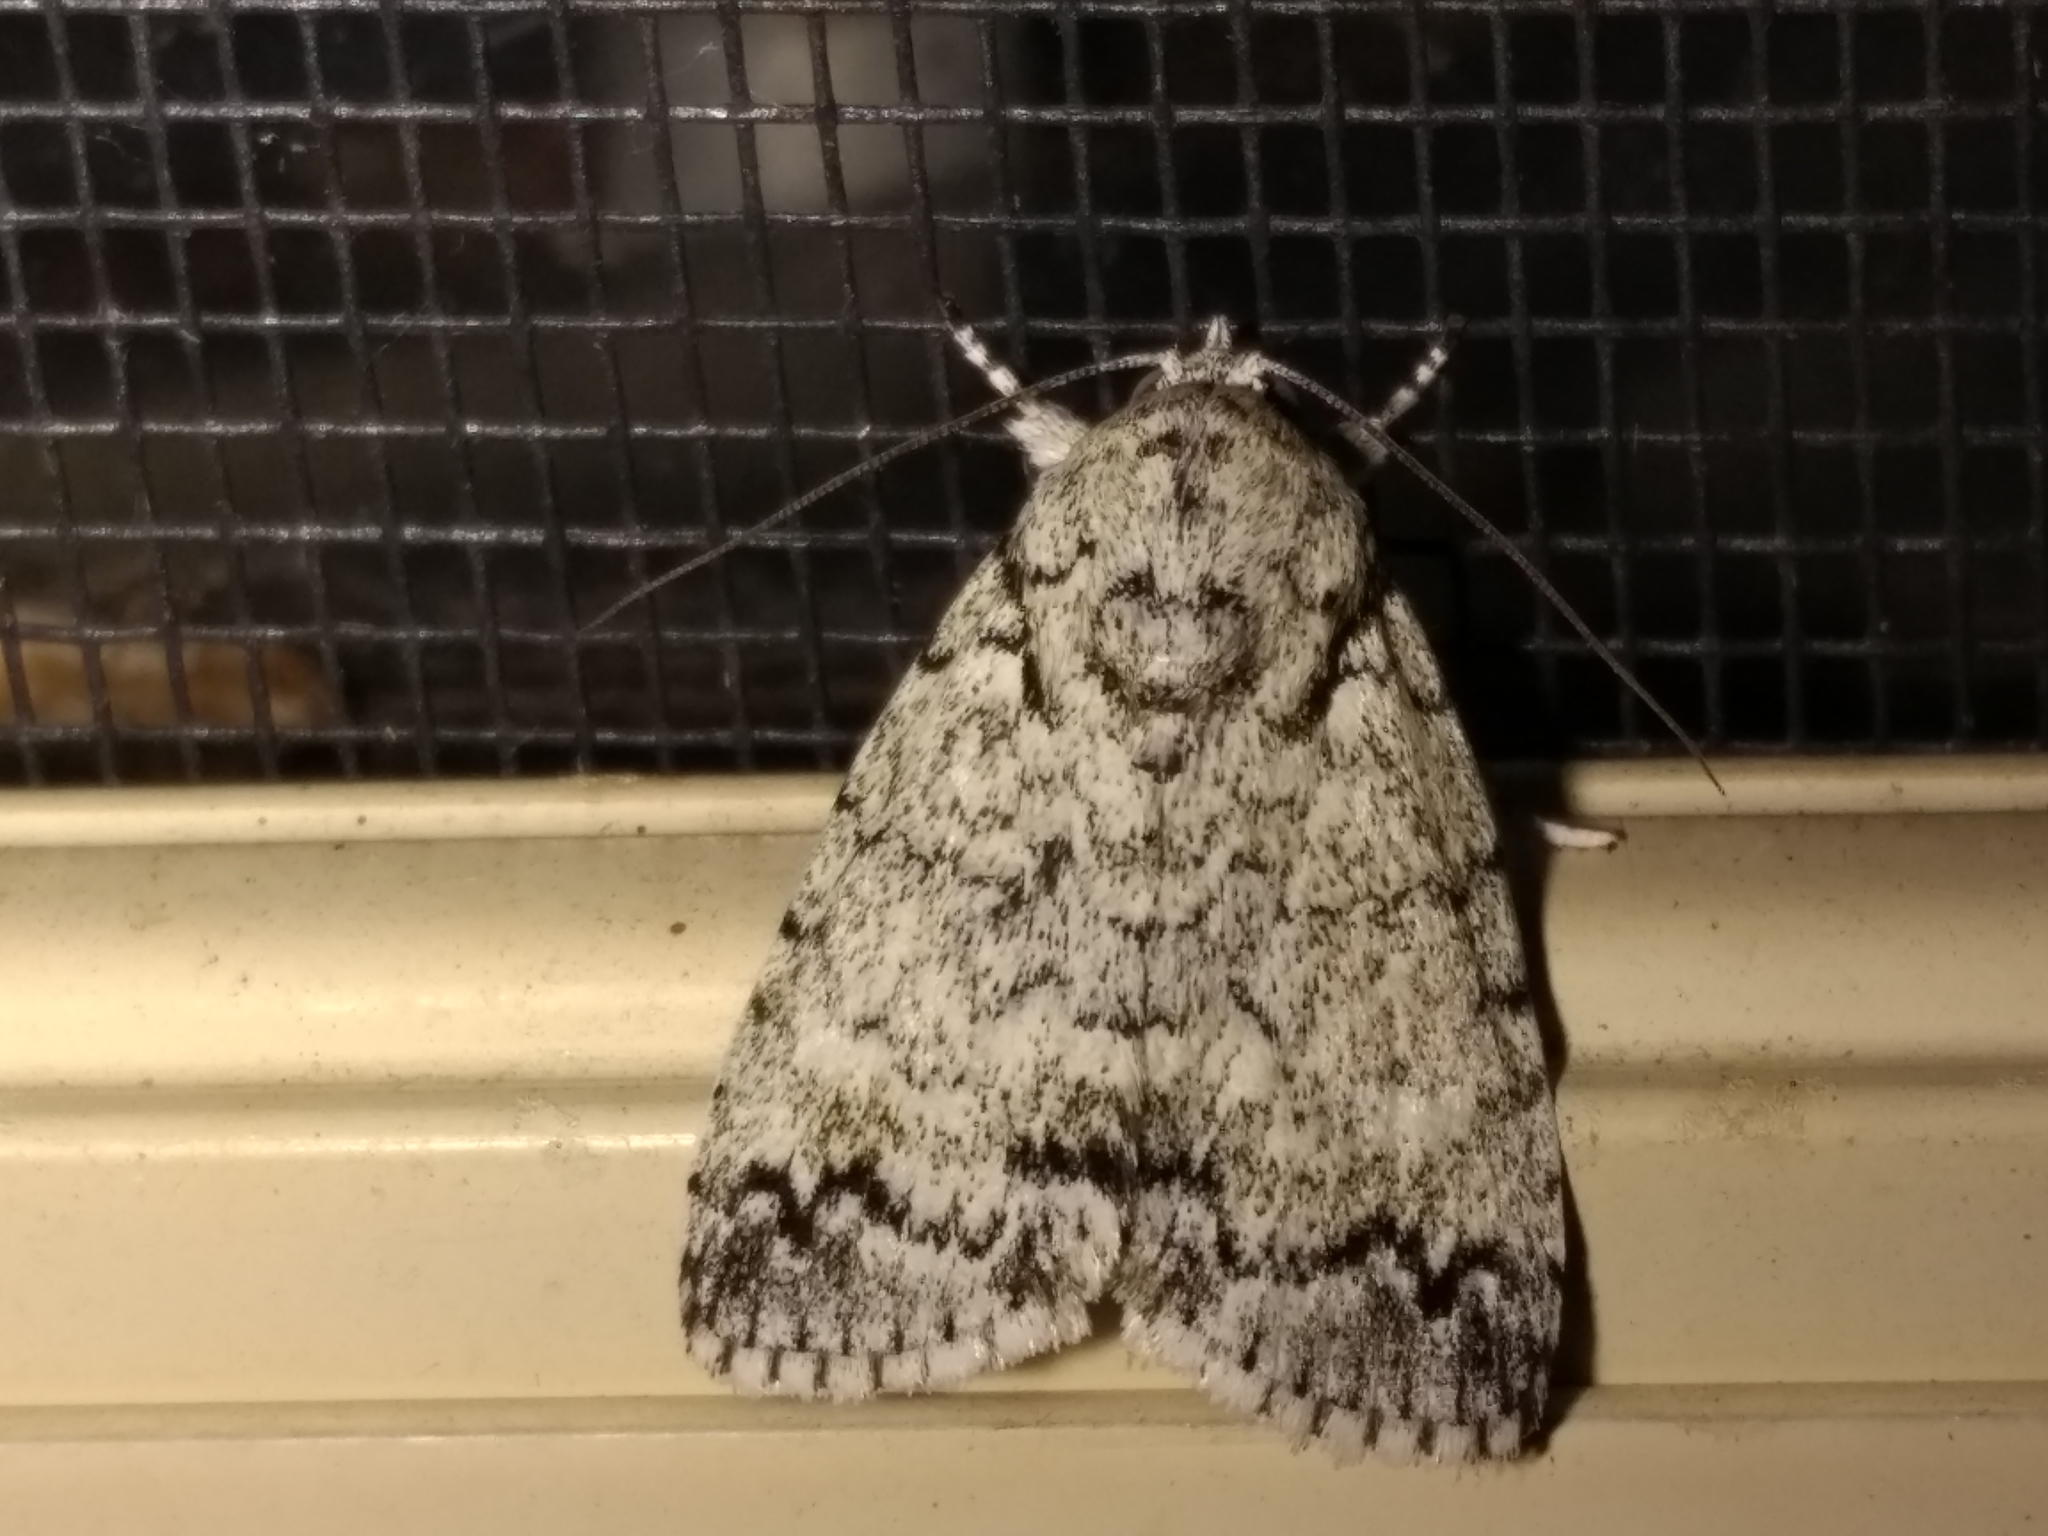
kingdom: Animalia
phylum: Arthropoda
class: Insecta
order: Lepidoptera
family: Nolidae
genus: Blenina
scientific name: Blenina lichenopa
